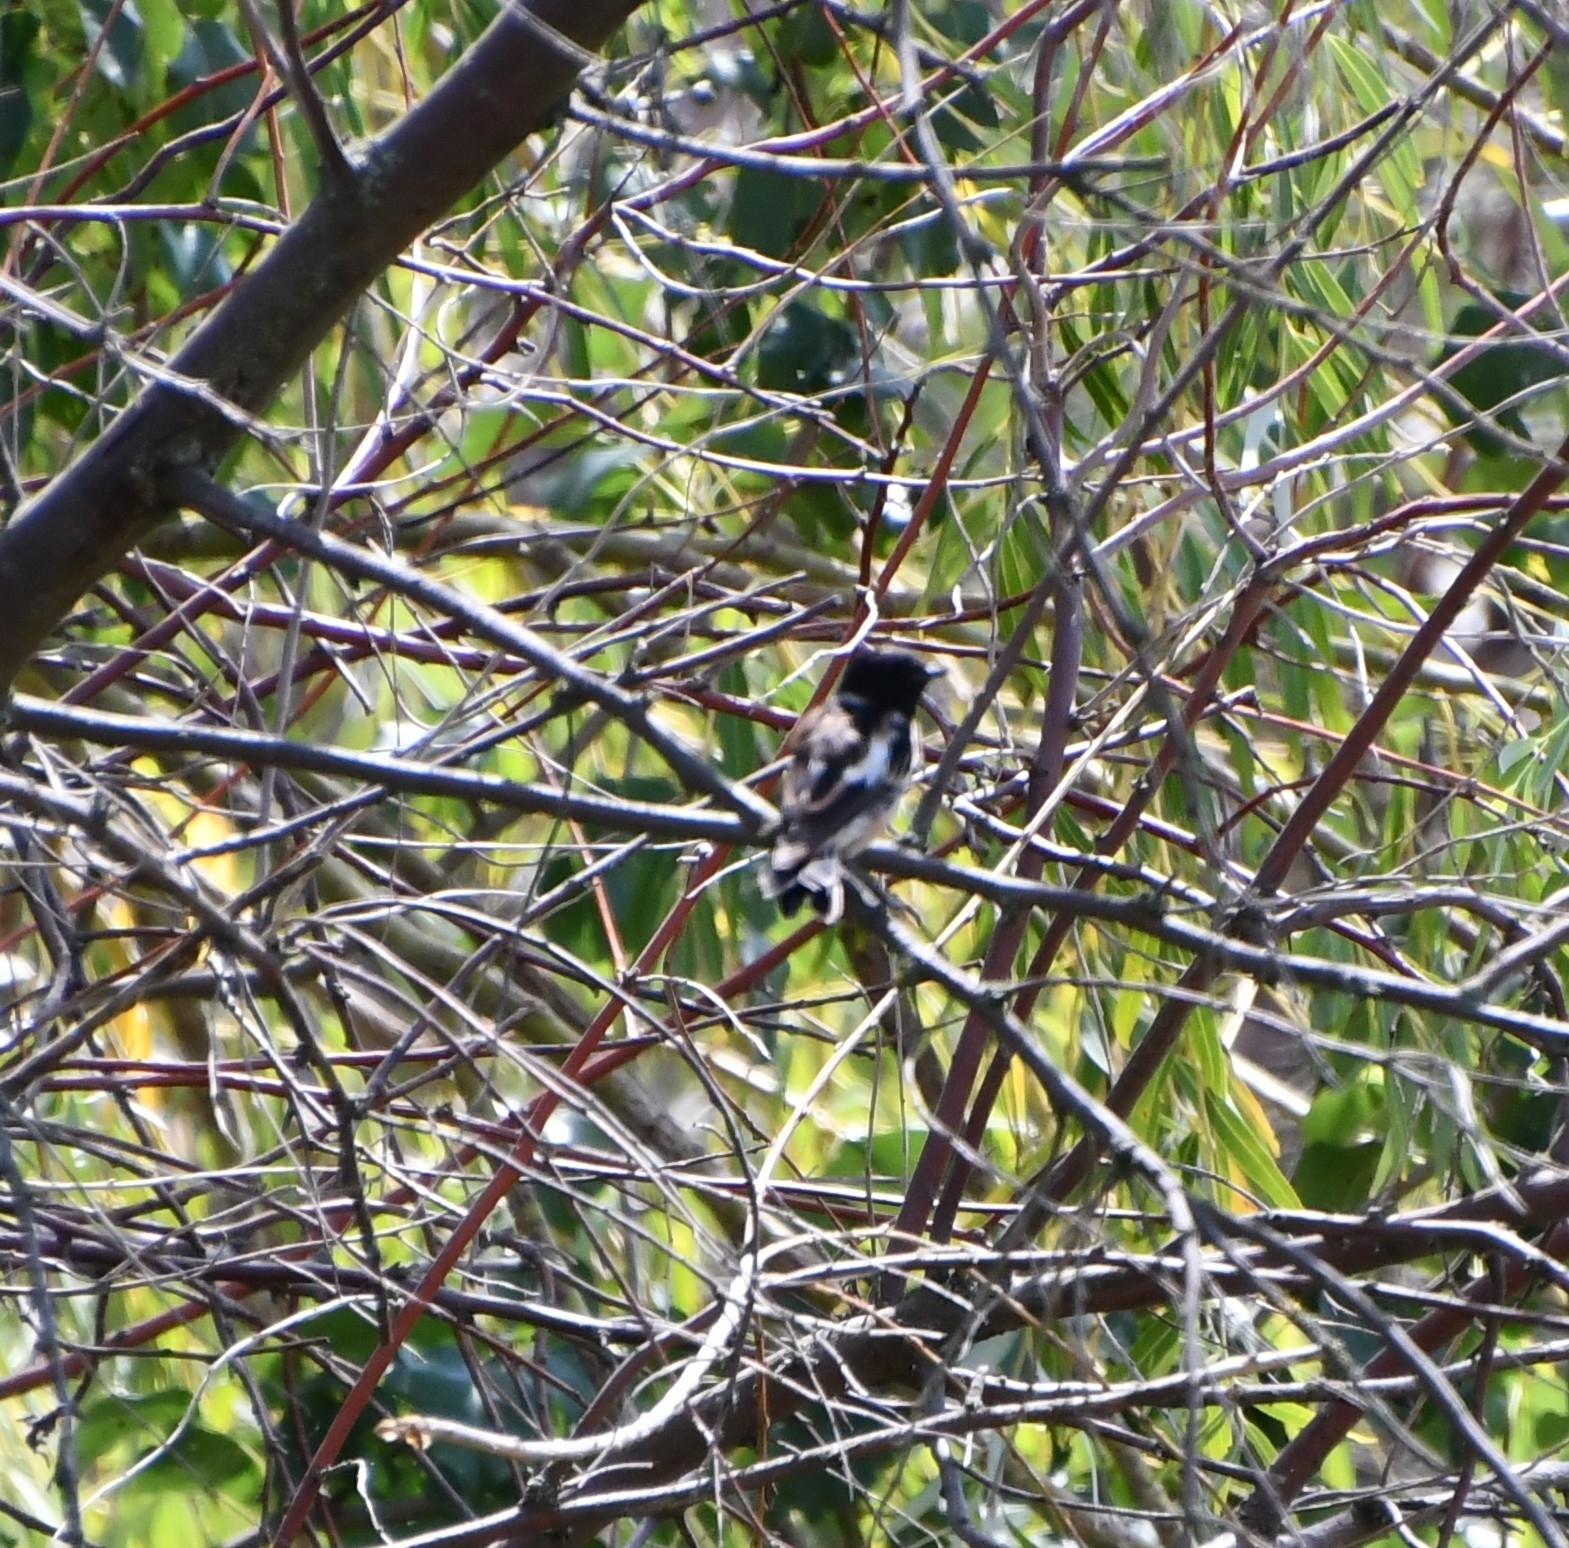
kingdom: Animalia
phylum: Chordata
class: Aves
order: Passeriformes
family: Muscicapidae
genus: Ficedula
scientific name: Ficedula hypoleuca
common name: European pied flycatcher
